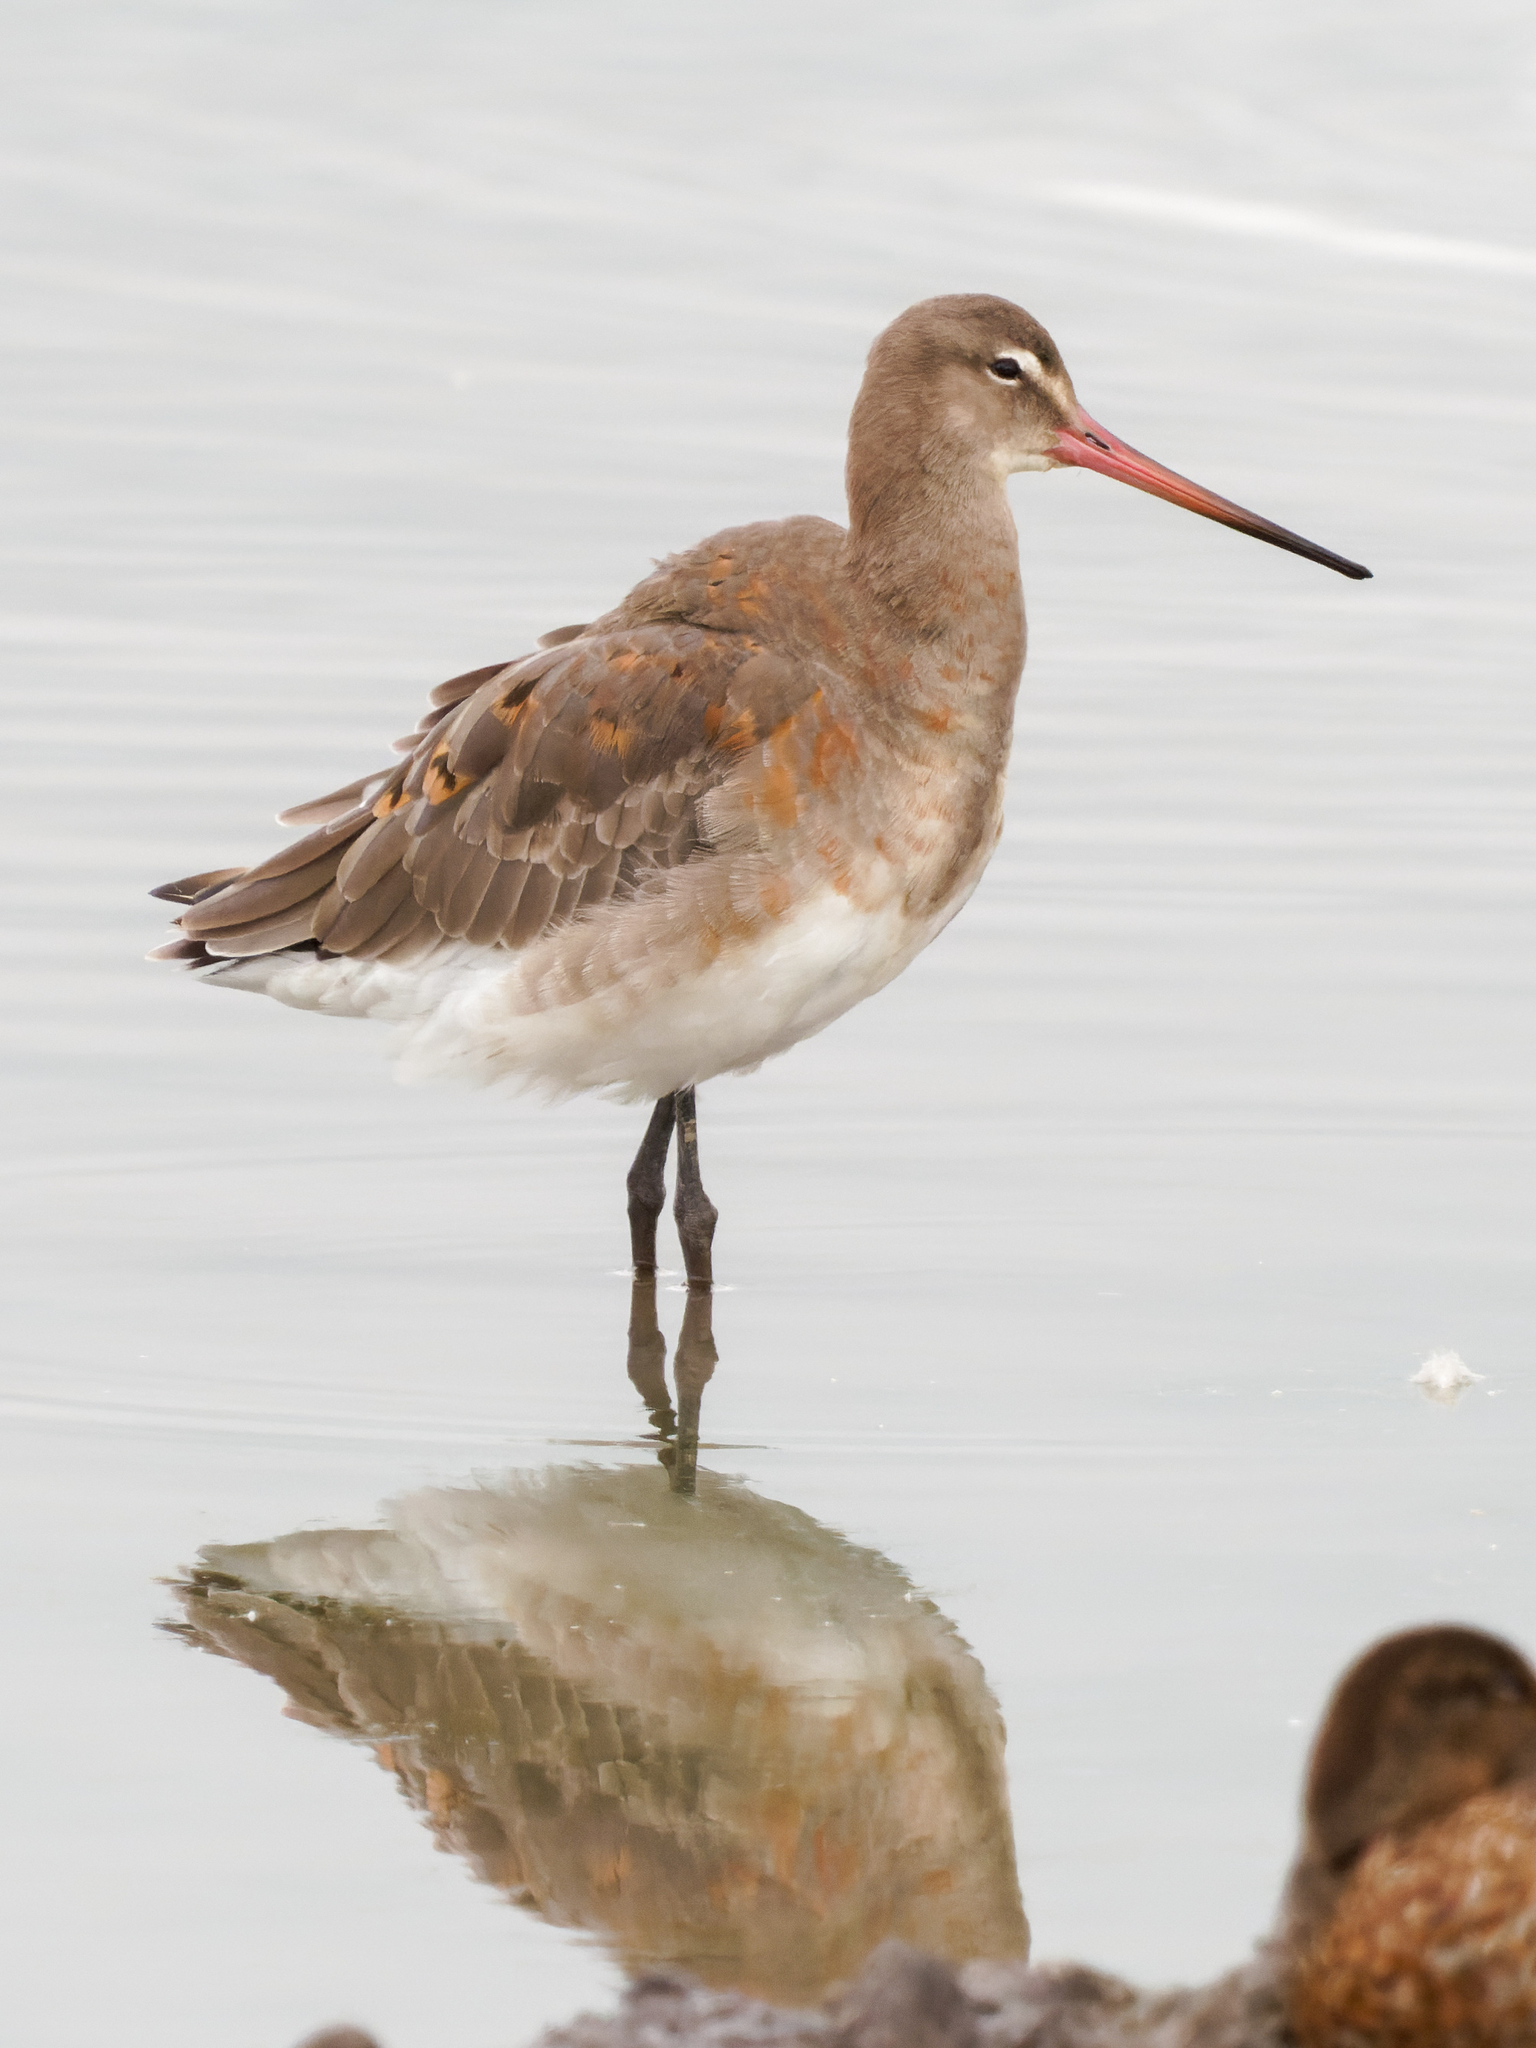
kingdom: Animalia
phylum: Chordata
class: Aves
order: Charadriiformes
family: Scolopacidae
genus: Limosa
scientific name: Limosa limosa
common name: Black-tailed godwit
